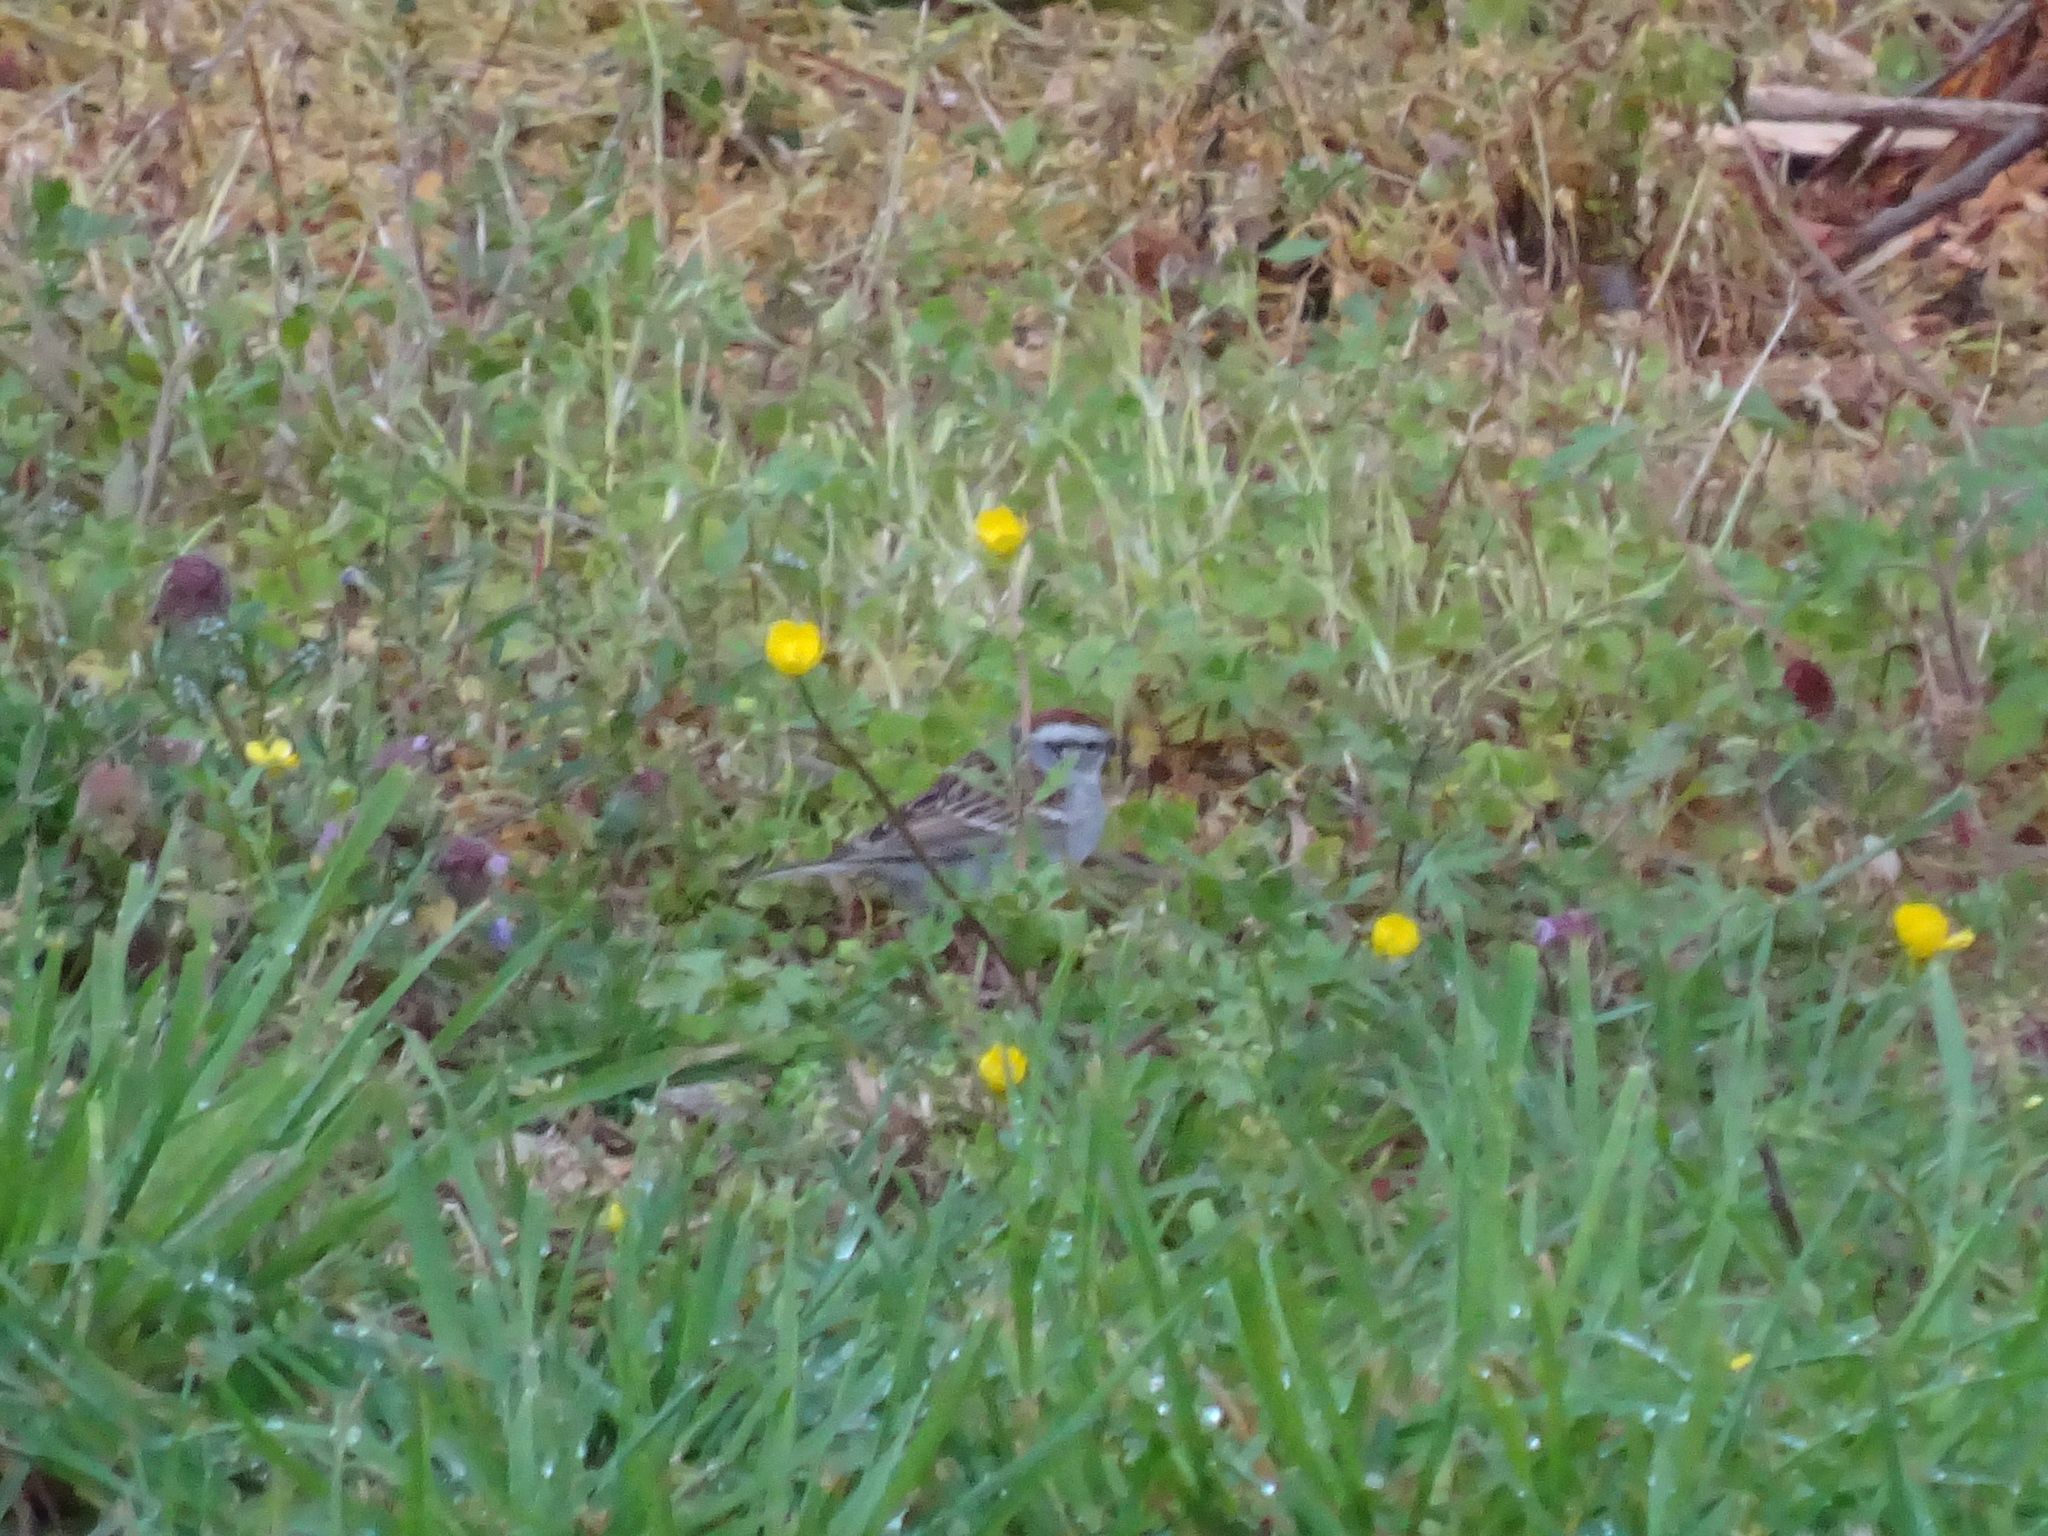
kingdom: Animalia
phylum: Chordata
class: Aves
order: Passeriformes
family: Passerellidae
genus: Spizella
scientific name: Spizella passerina
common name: Chipping sparrow
